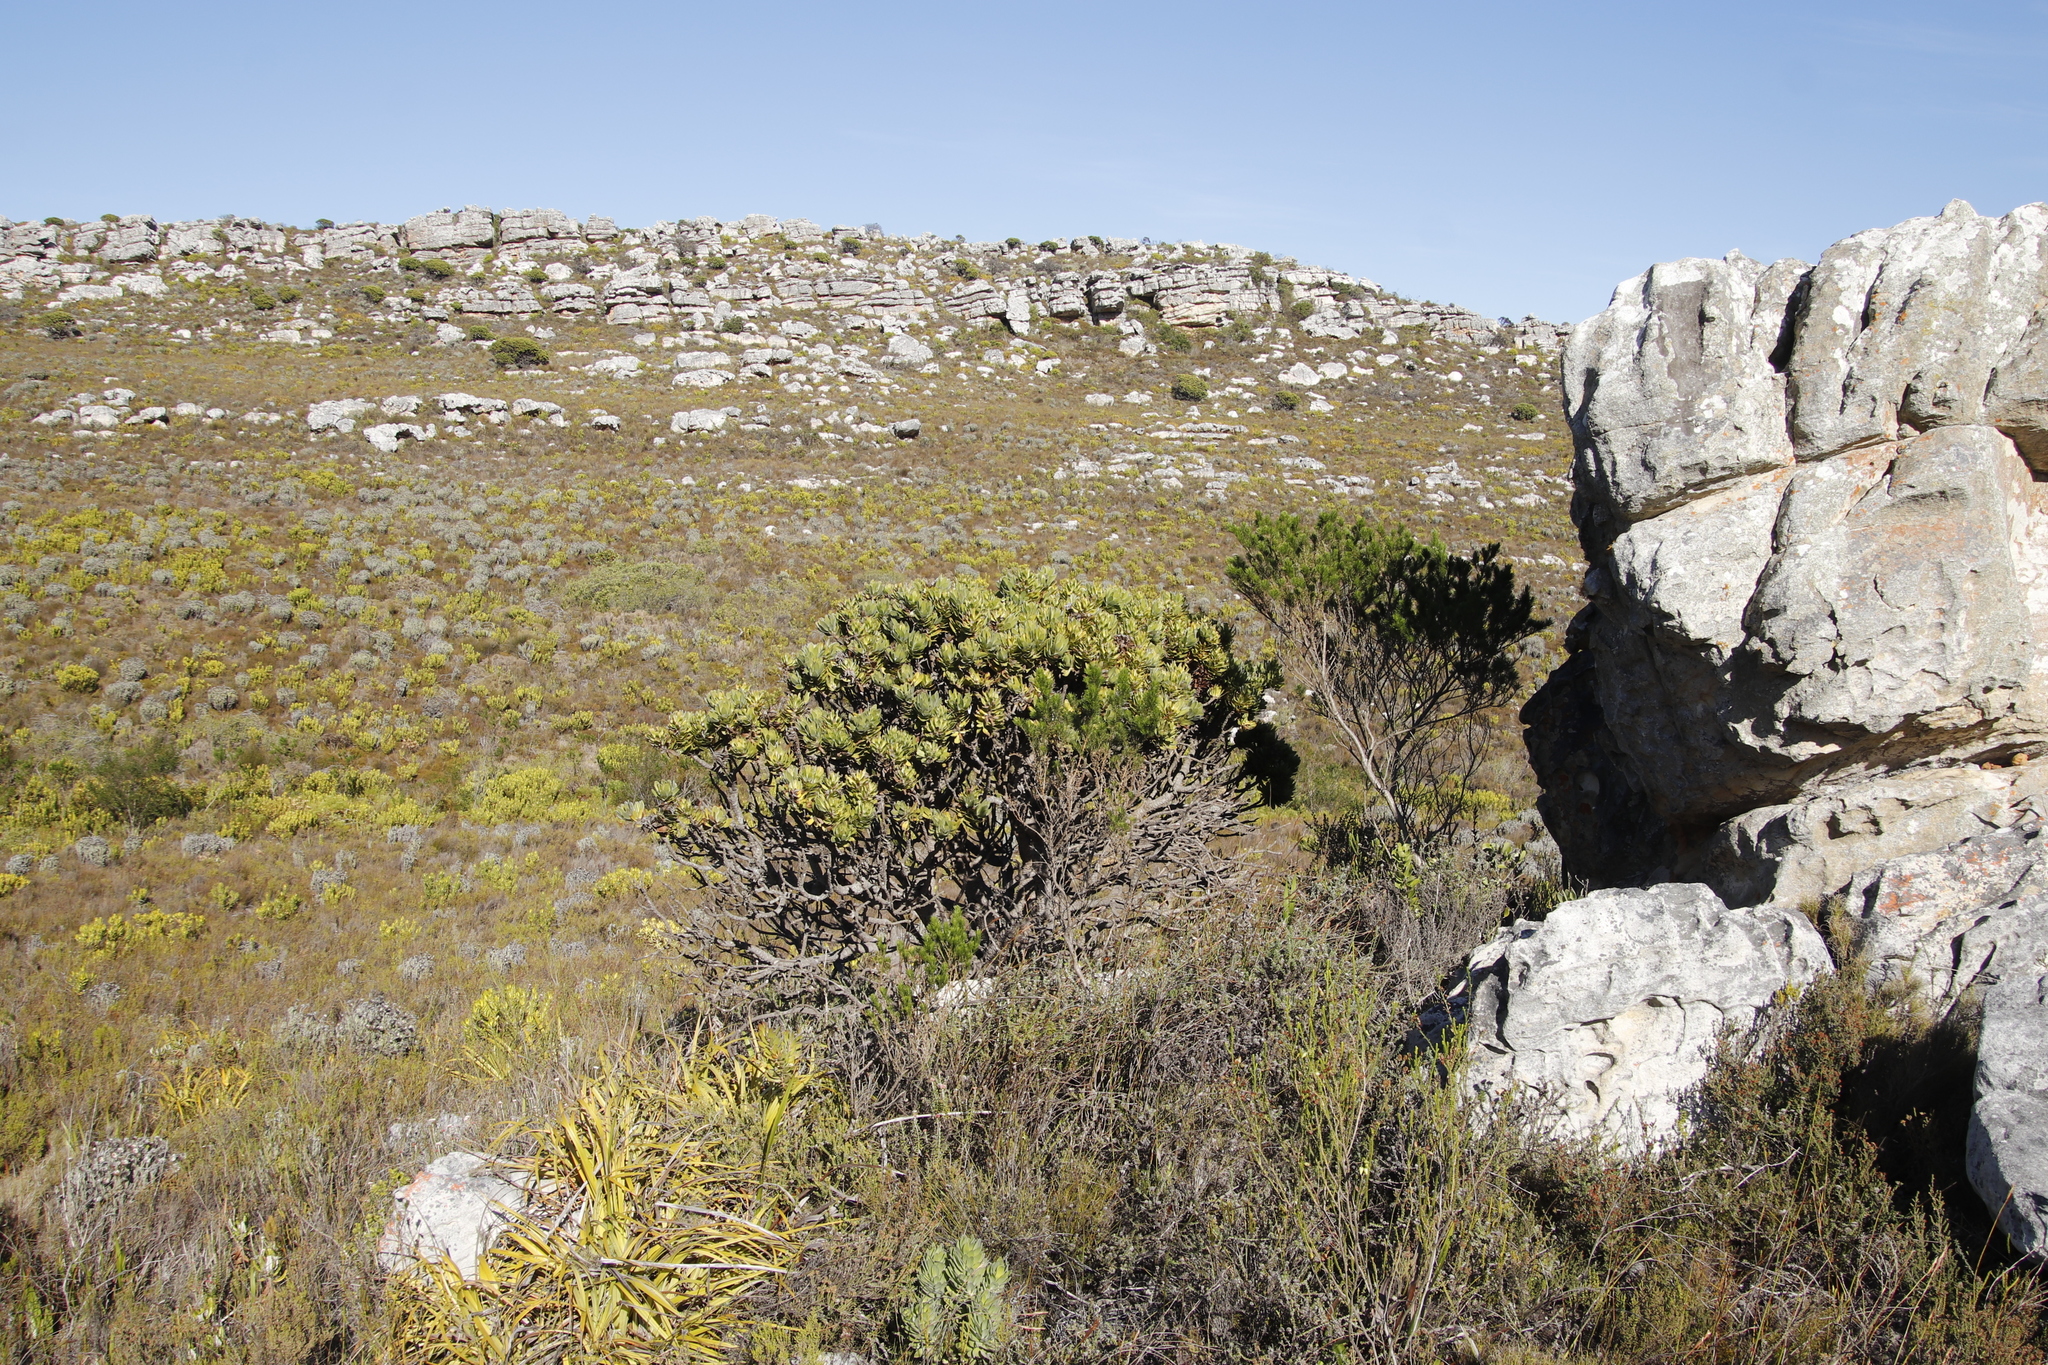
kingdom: Plantae
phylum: Tracheophyta
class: Magnoliopsida
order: Fabales
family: Fabaceae
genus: Psoralea
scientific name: Psoralea pinnata
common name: African scurfpea
